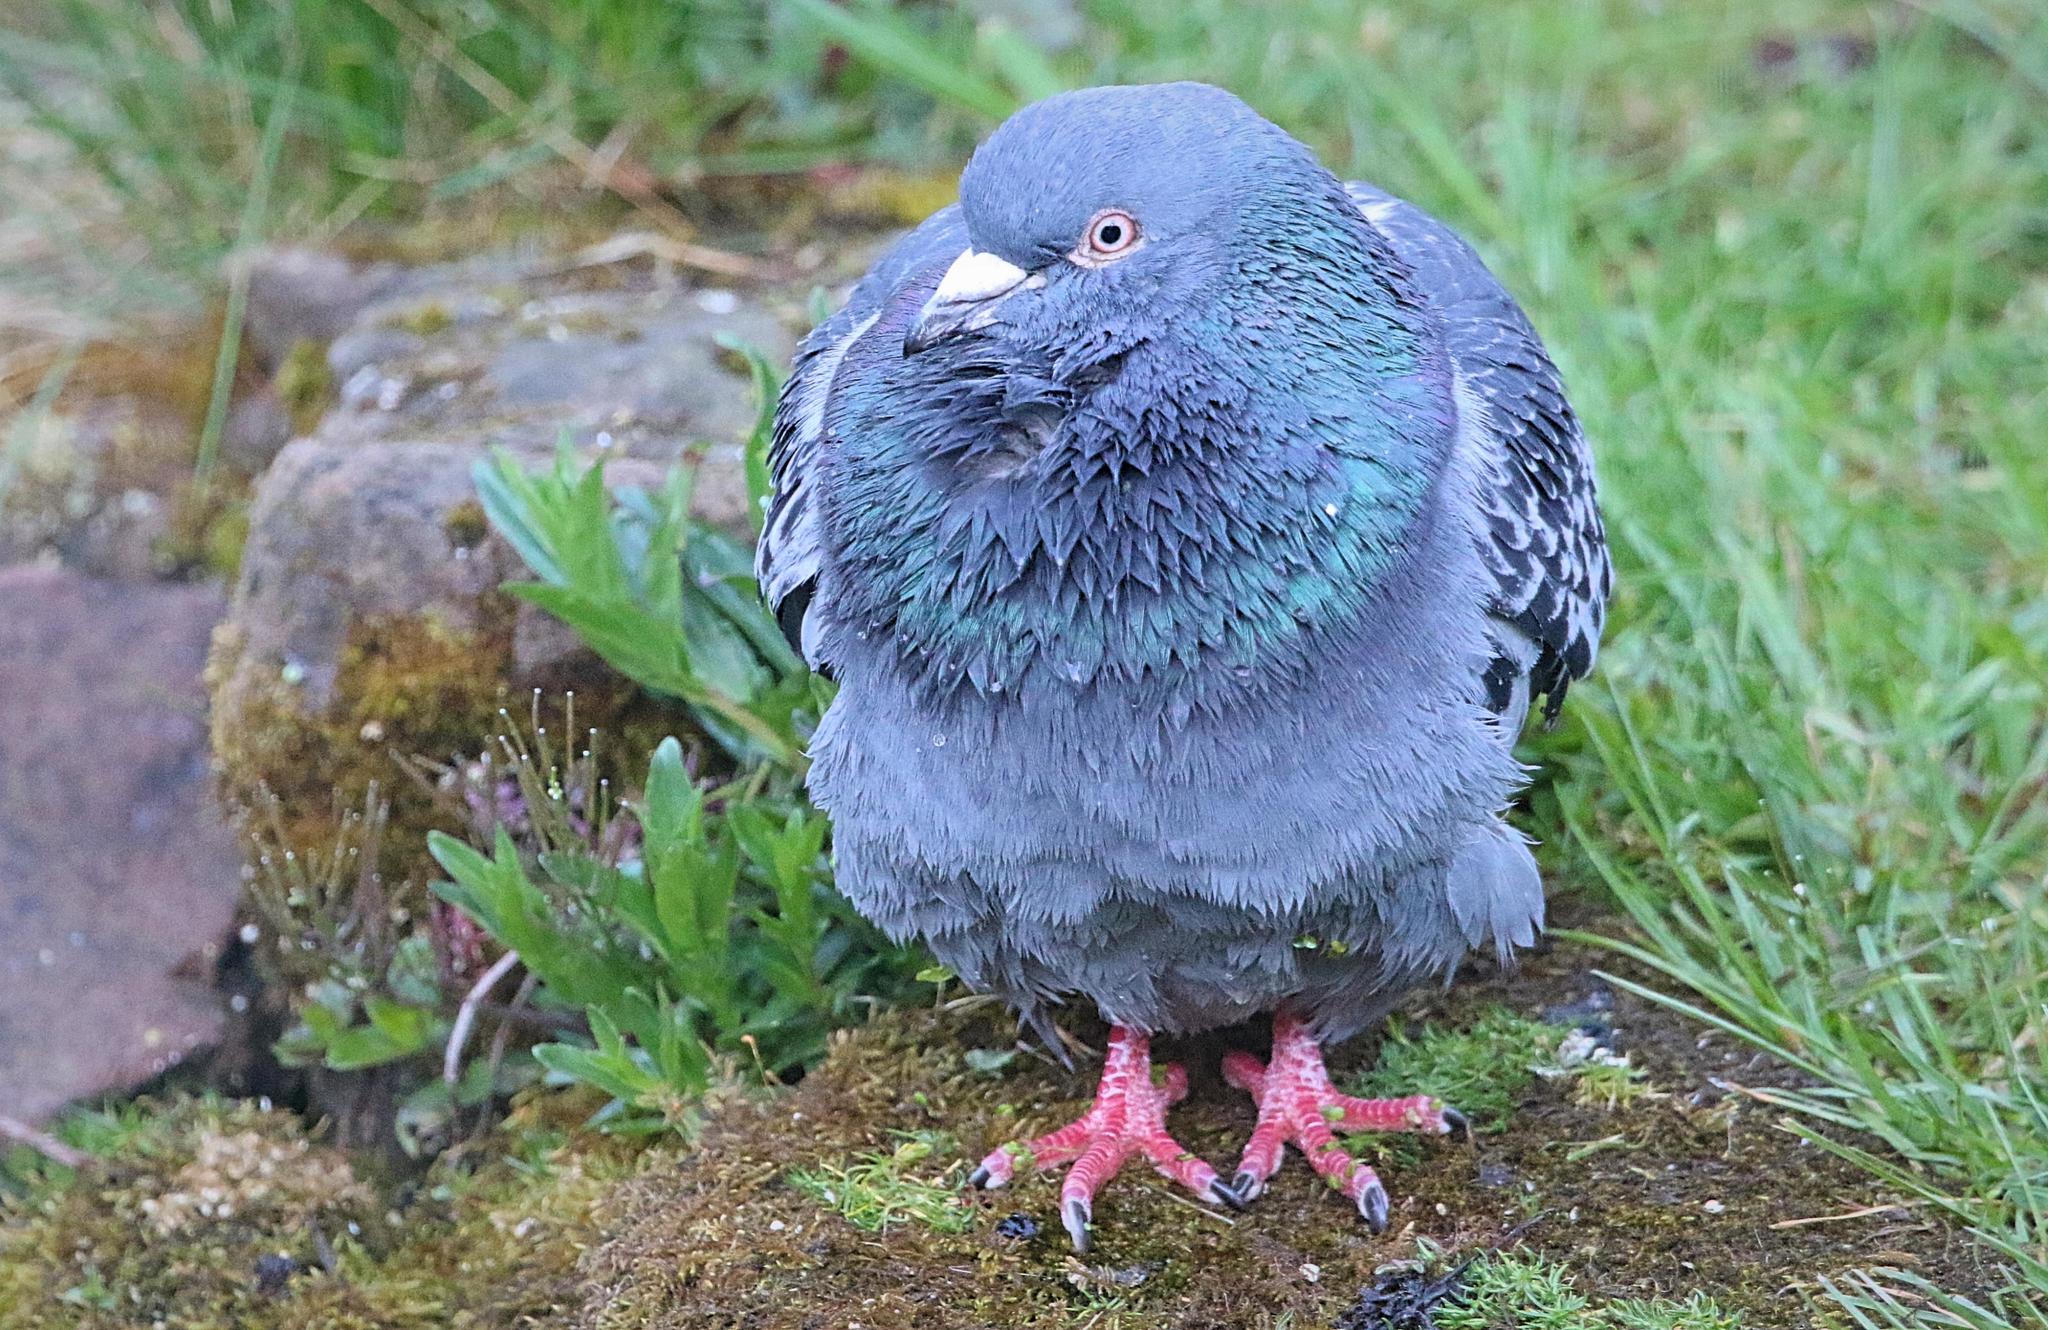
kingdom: Animalia
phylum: Chordata
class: Aves
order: Columbiformes
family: Columbidae
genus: Columba
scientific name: Columba livia
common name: Rock pigeon
